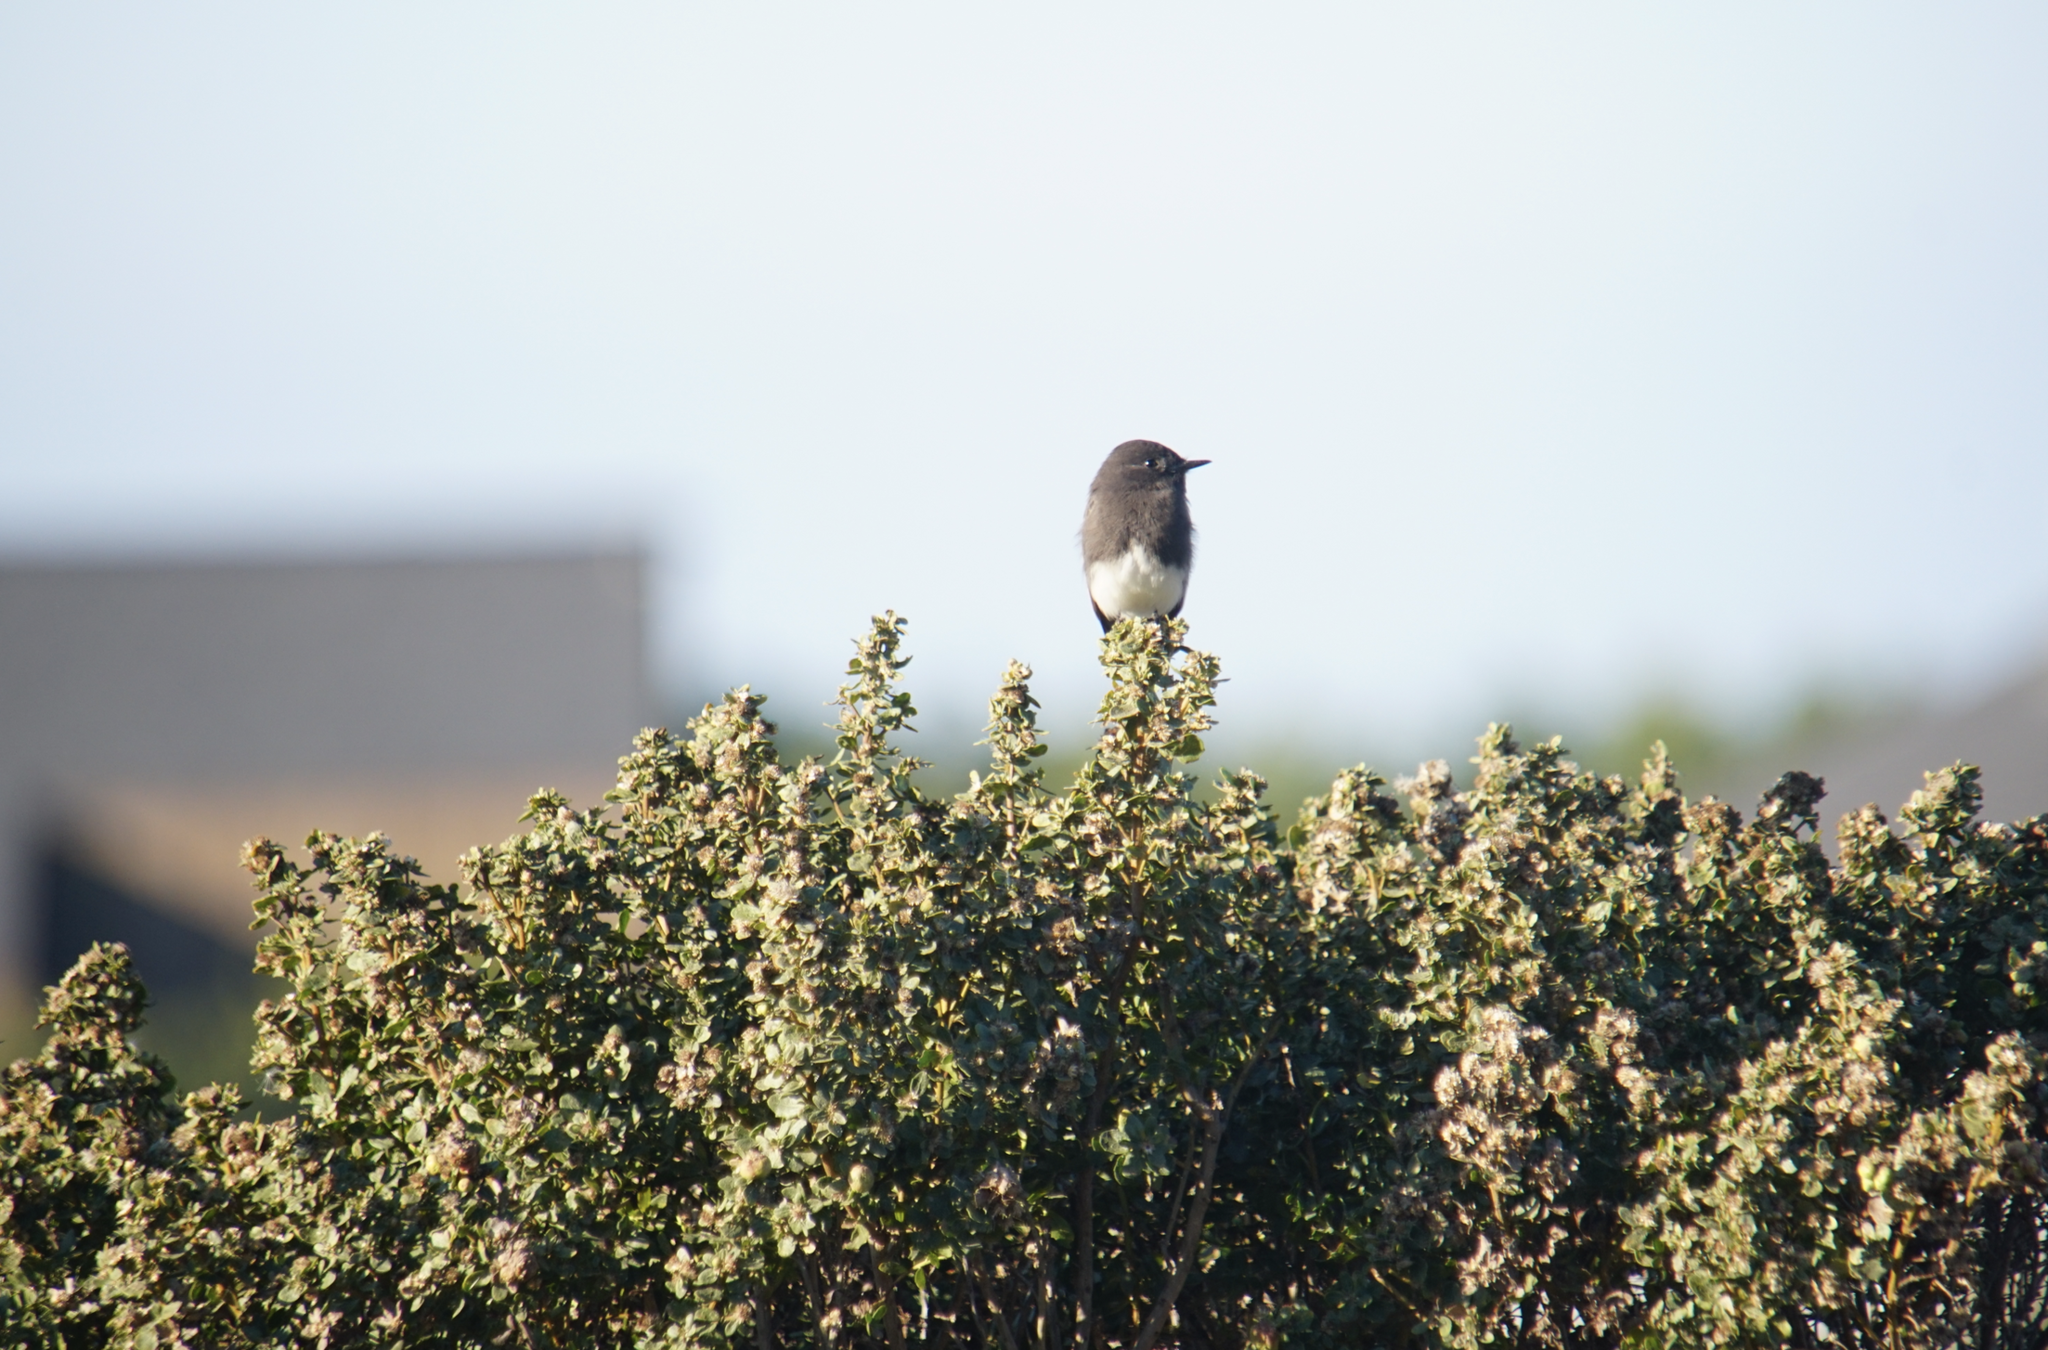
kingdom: Animalia
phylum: Chordata
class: Aves
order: Passeriformes
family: Tyrannidae
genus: Sayornis
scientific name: Sayornis nigricans
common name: Black phoebe
